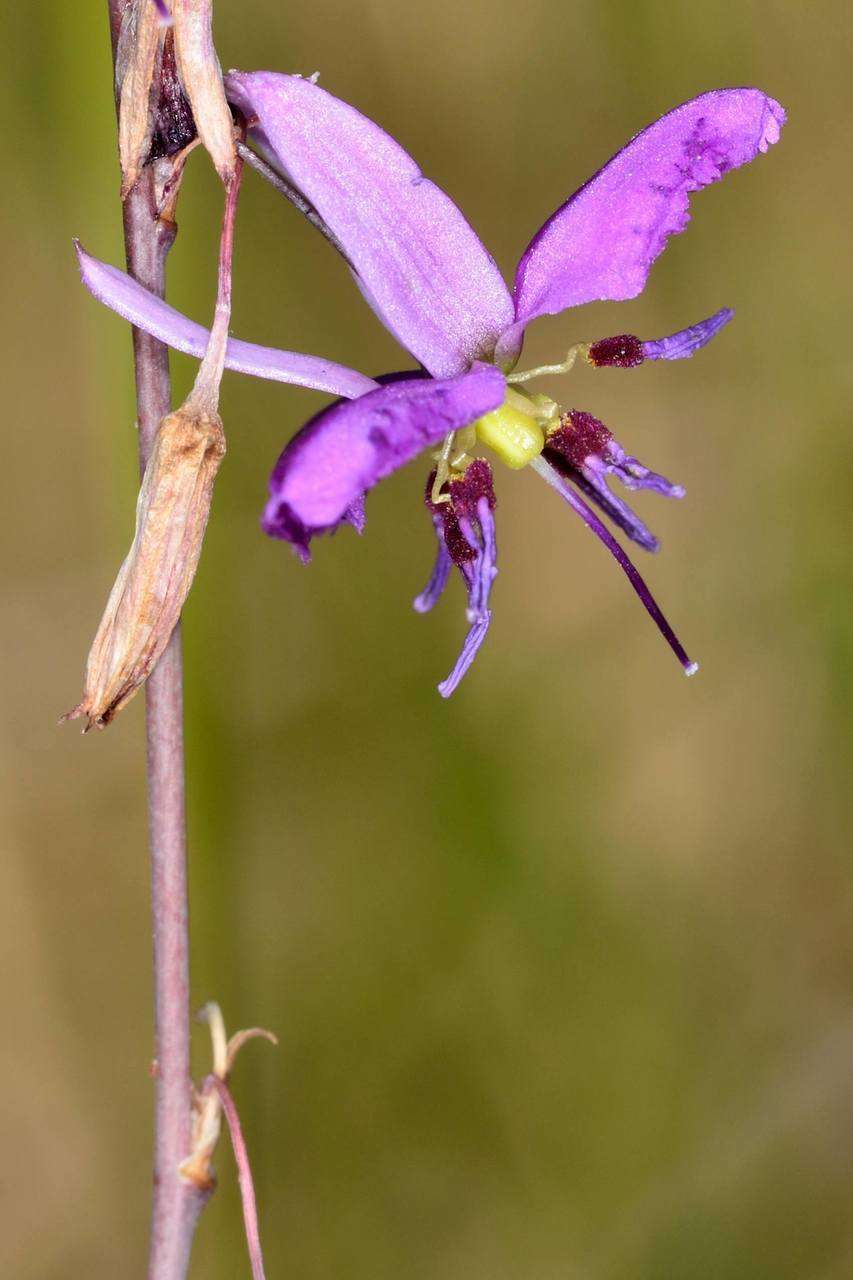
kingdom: Plantae
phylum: Tracheophyta
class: Liliopsida
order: Asparagales
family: Asparagaceae
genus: Dichopogon
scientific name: Dichopogon fimbriatus
